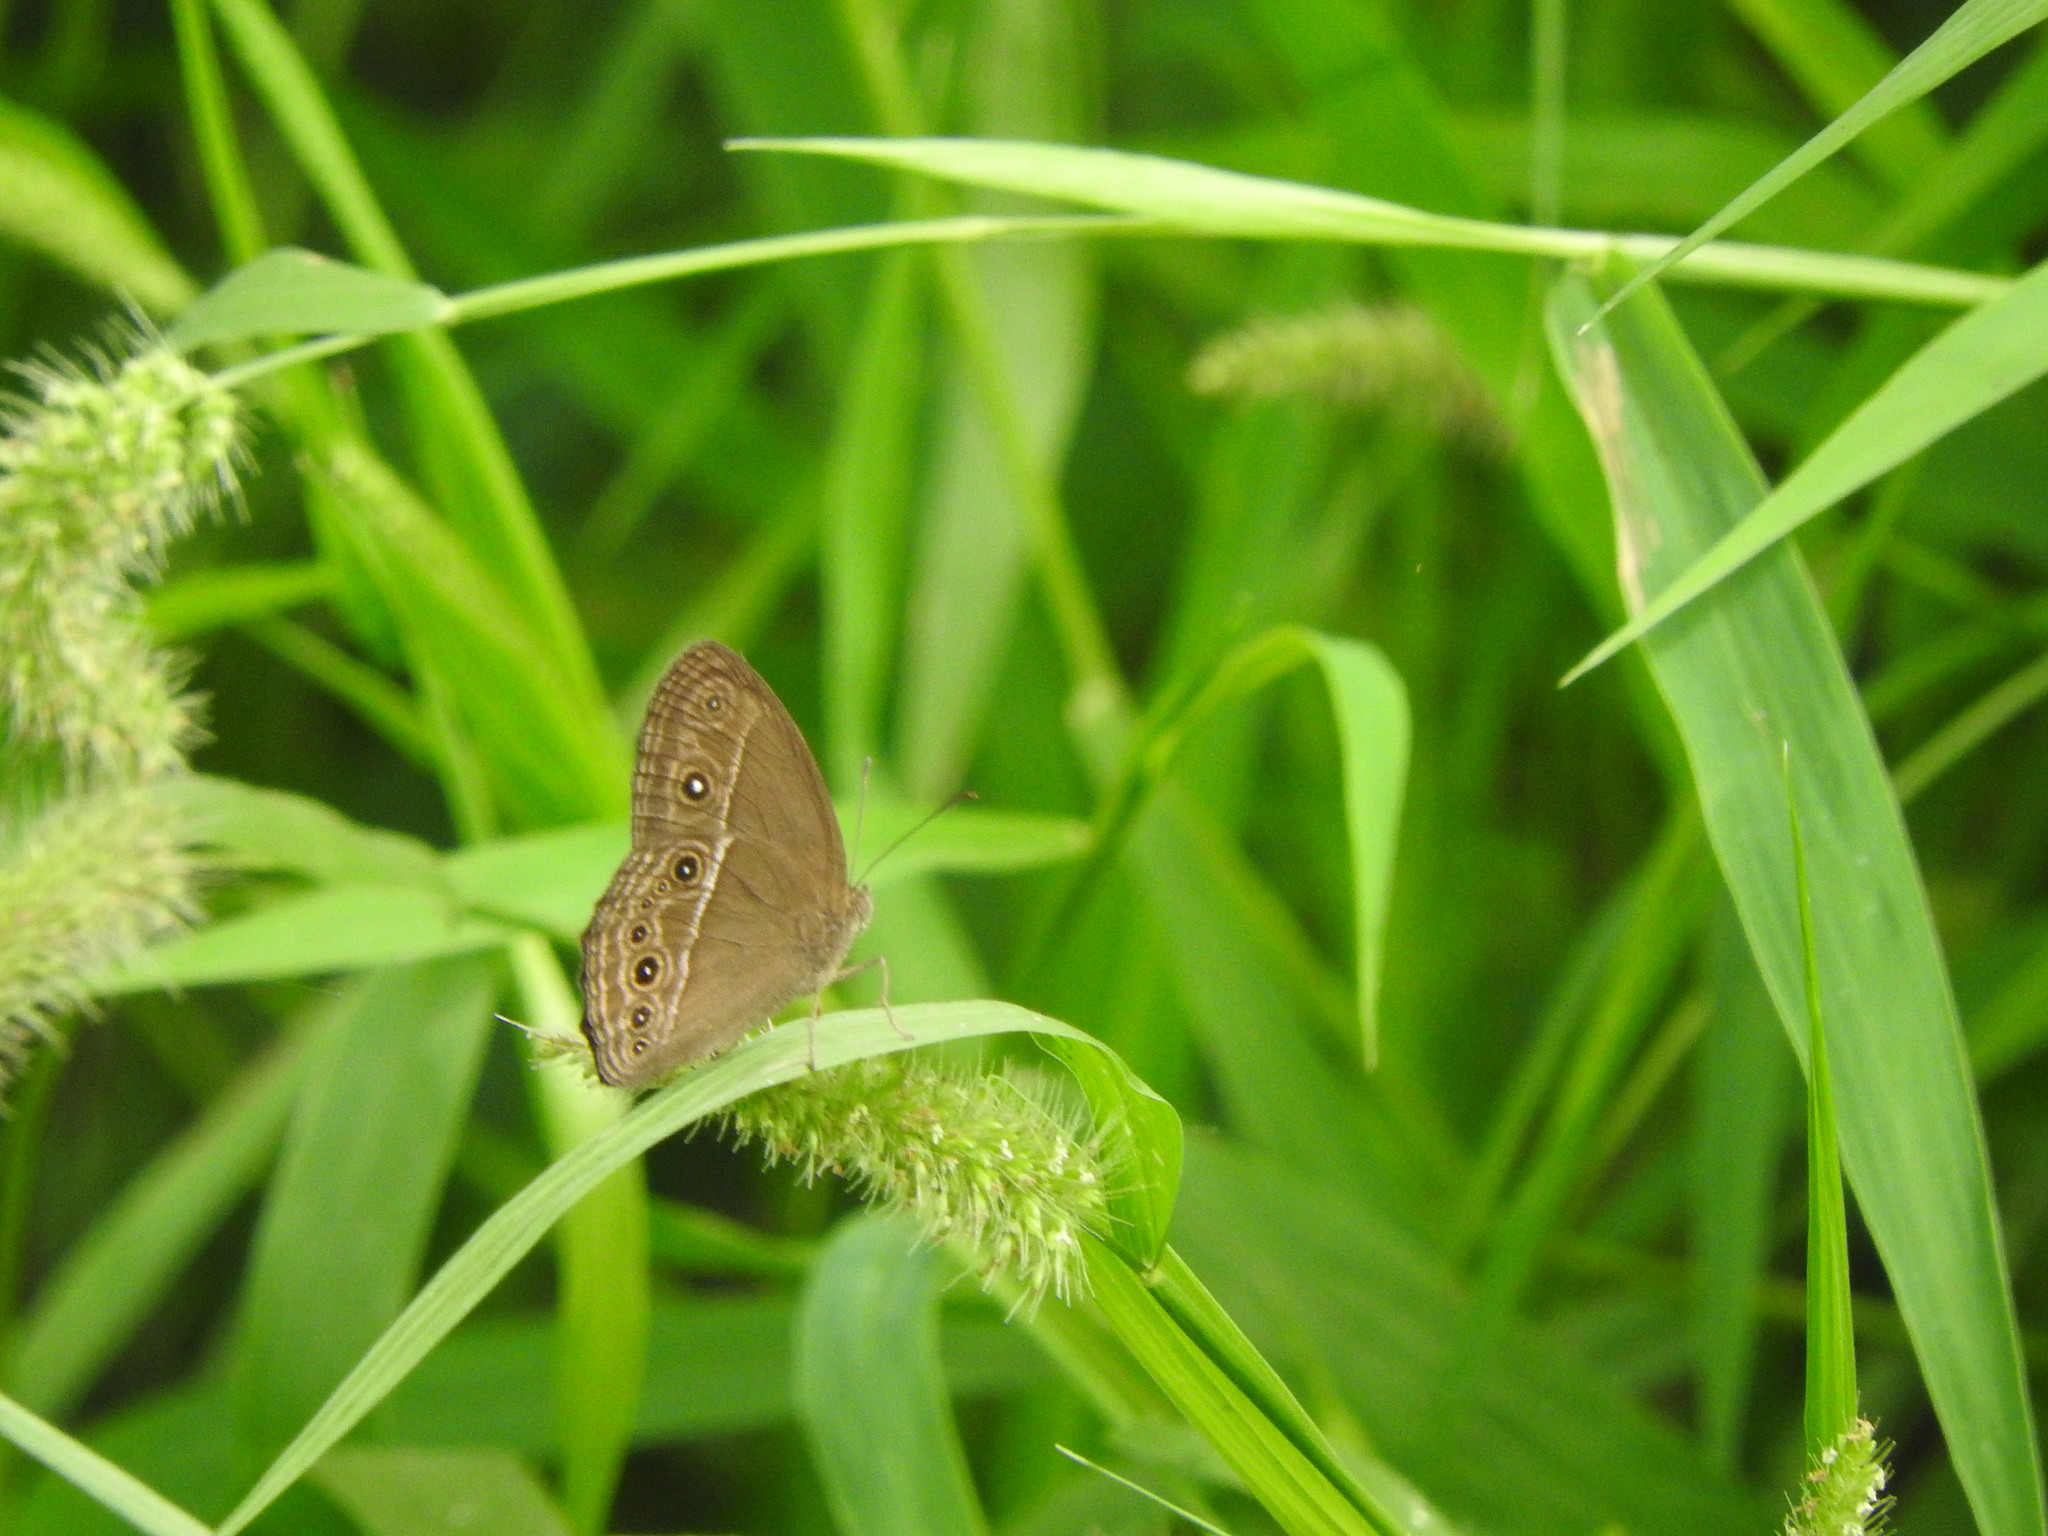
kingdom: Animalia
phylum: Arthropoda
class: Insecta
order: Lepidoptera
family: Nymphalidae
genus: Mycalesis
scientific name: Mycalesis perseus
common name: Dingy bushbrown
